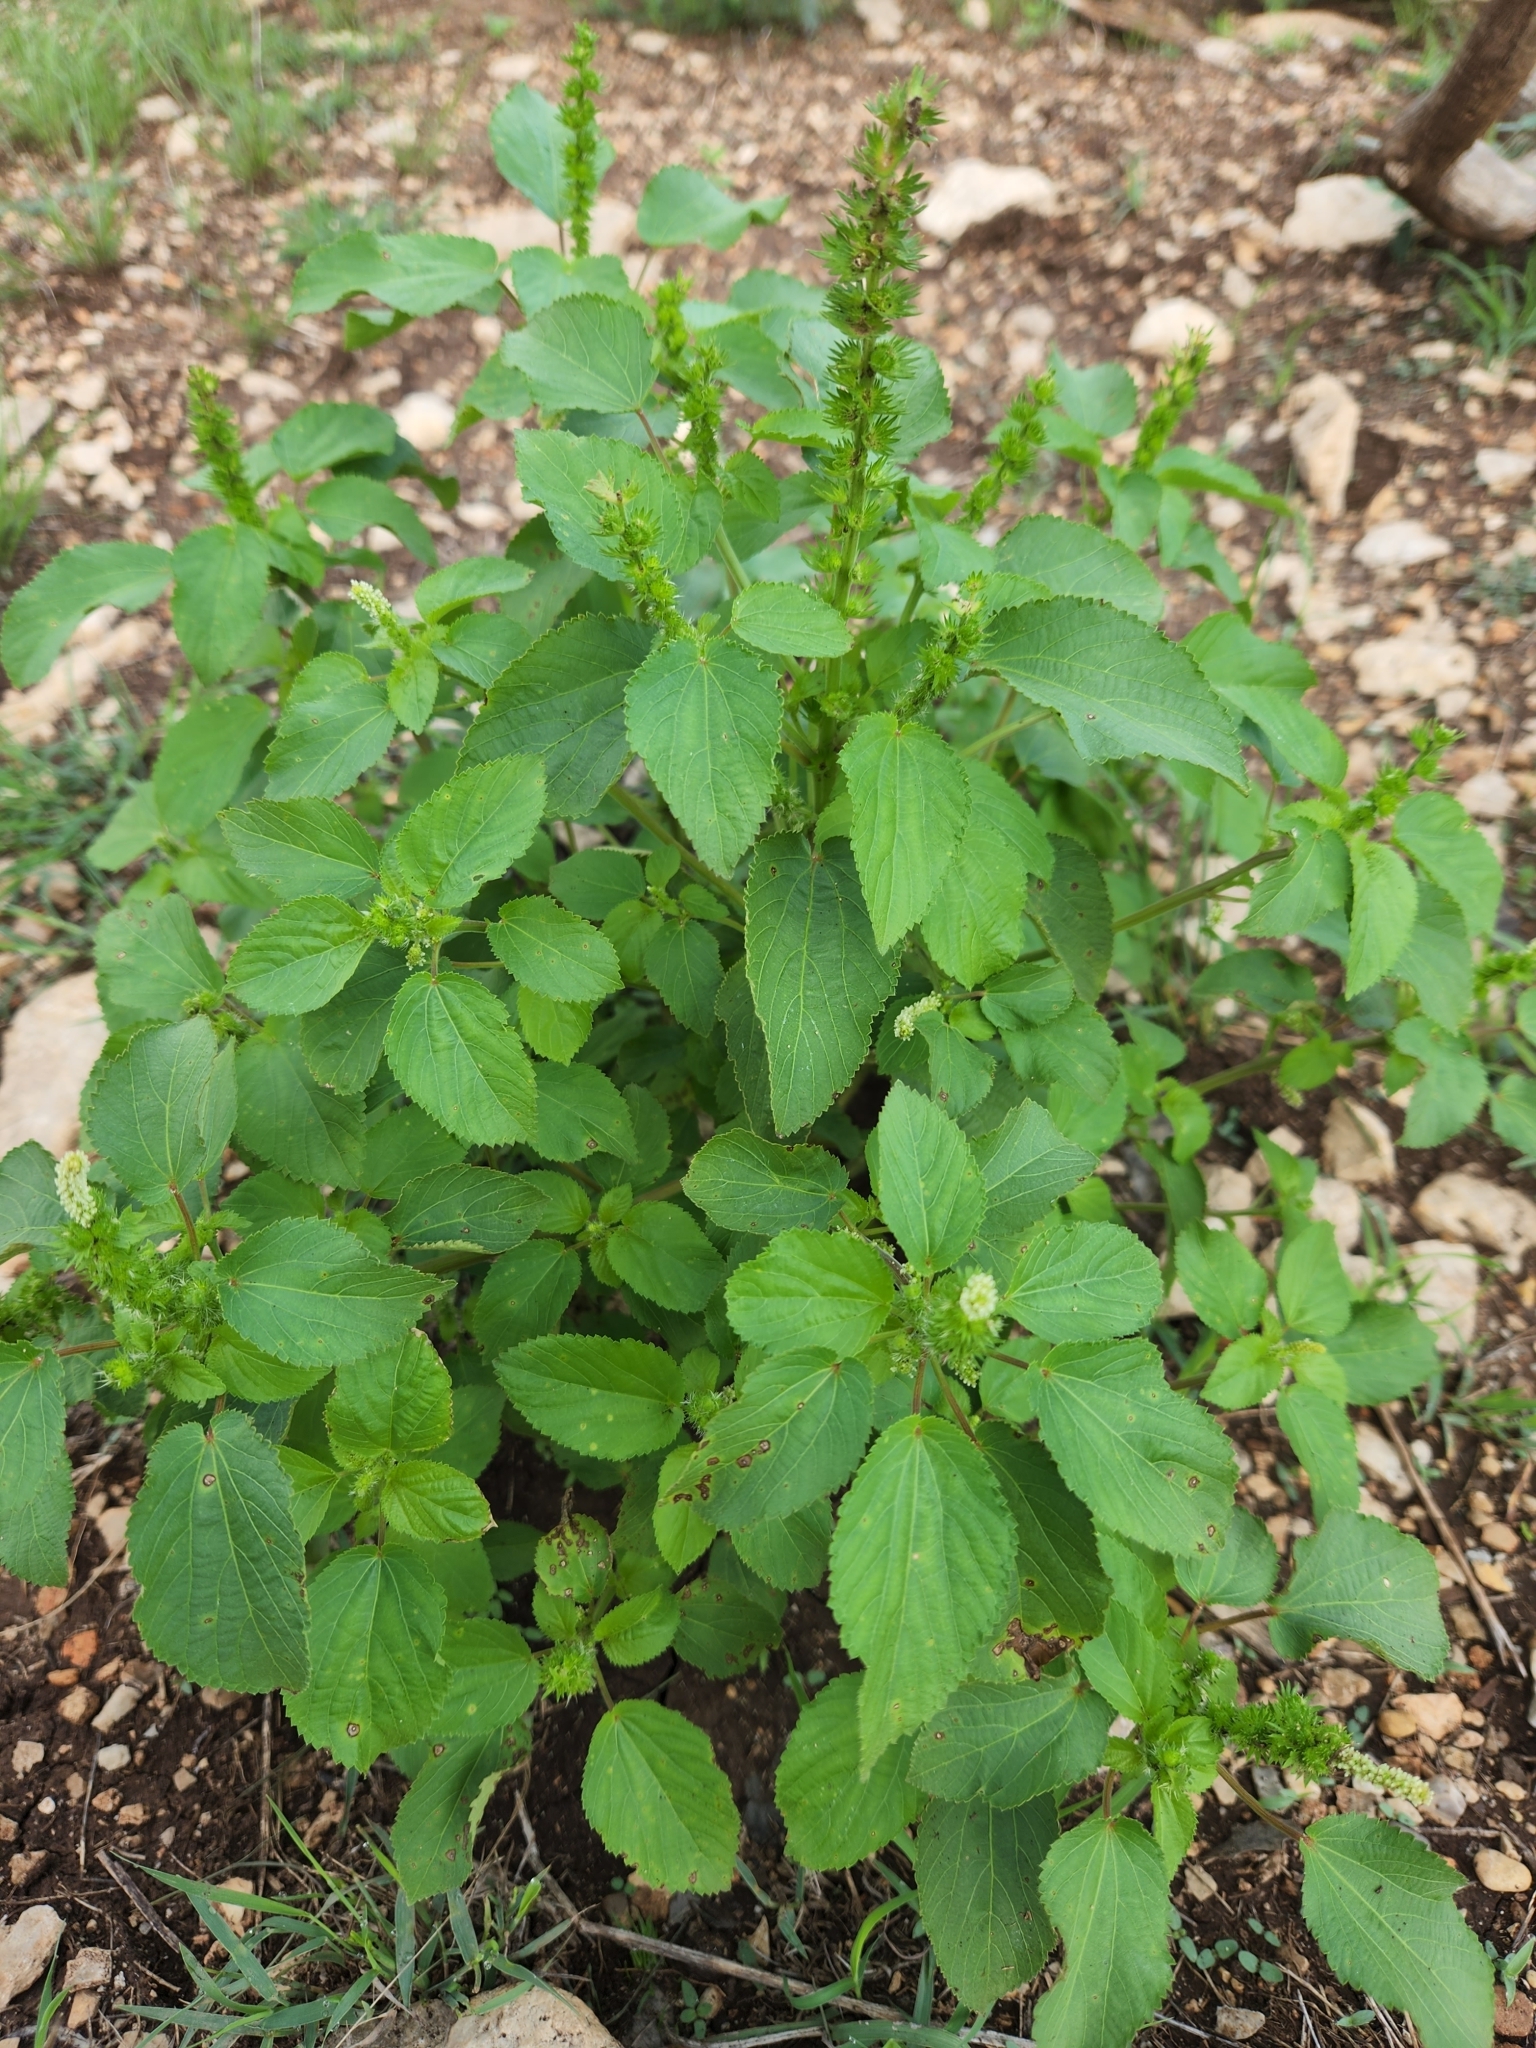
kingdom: Plantae
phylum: Tracheophyta
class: Magnoliopsida
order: Malpighiales
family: Euphorbiaceae
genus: Acalypha
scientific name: Acalypha ostryifolia
